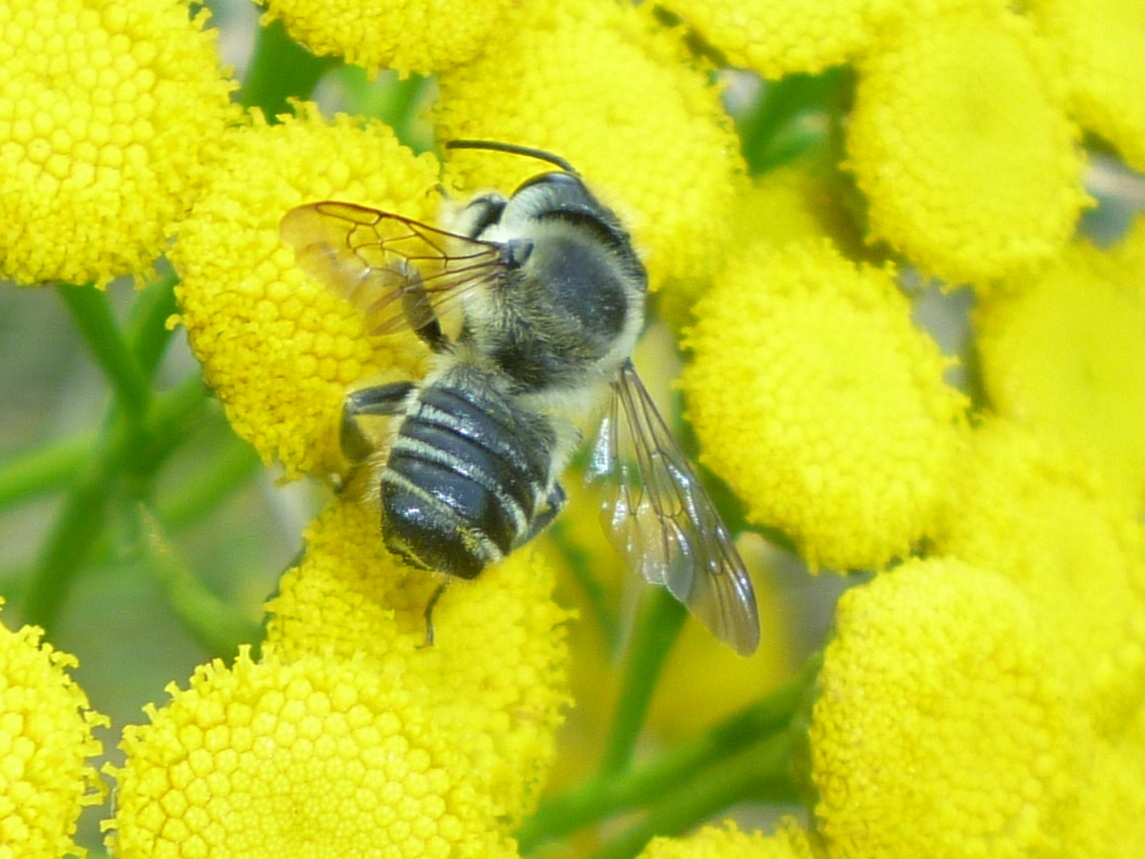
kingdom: Animalia
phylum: Arthropoda
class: Insecta
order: Hymenoptera
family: Megachilidae
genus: Megachile
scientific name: Megachile mendica
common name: Flat-tailed leafcutter
